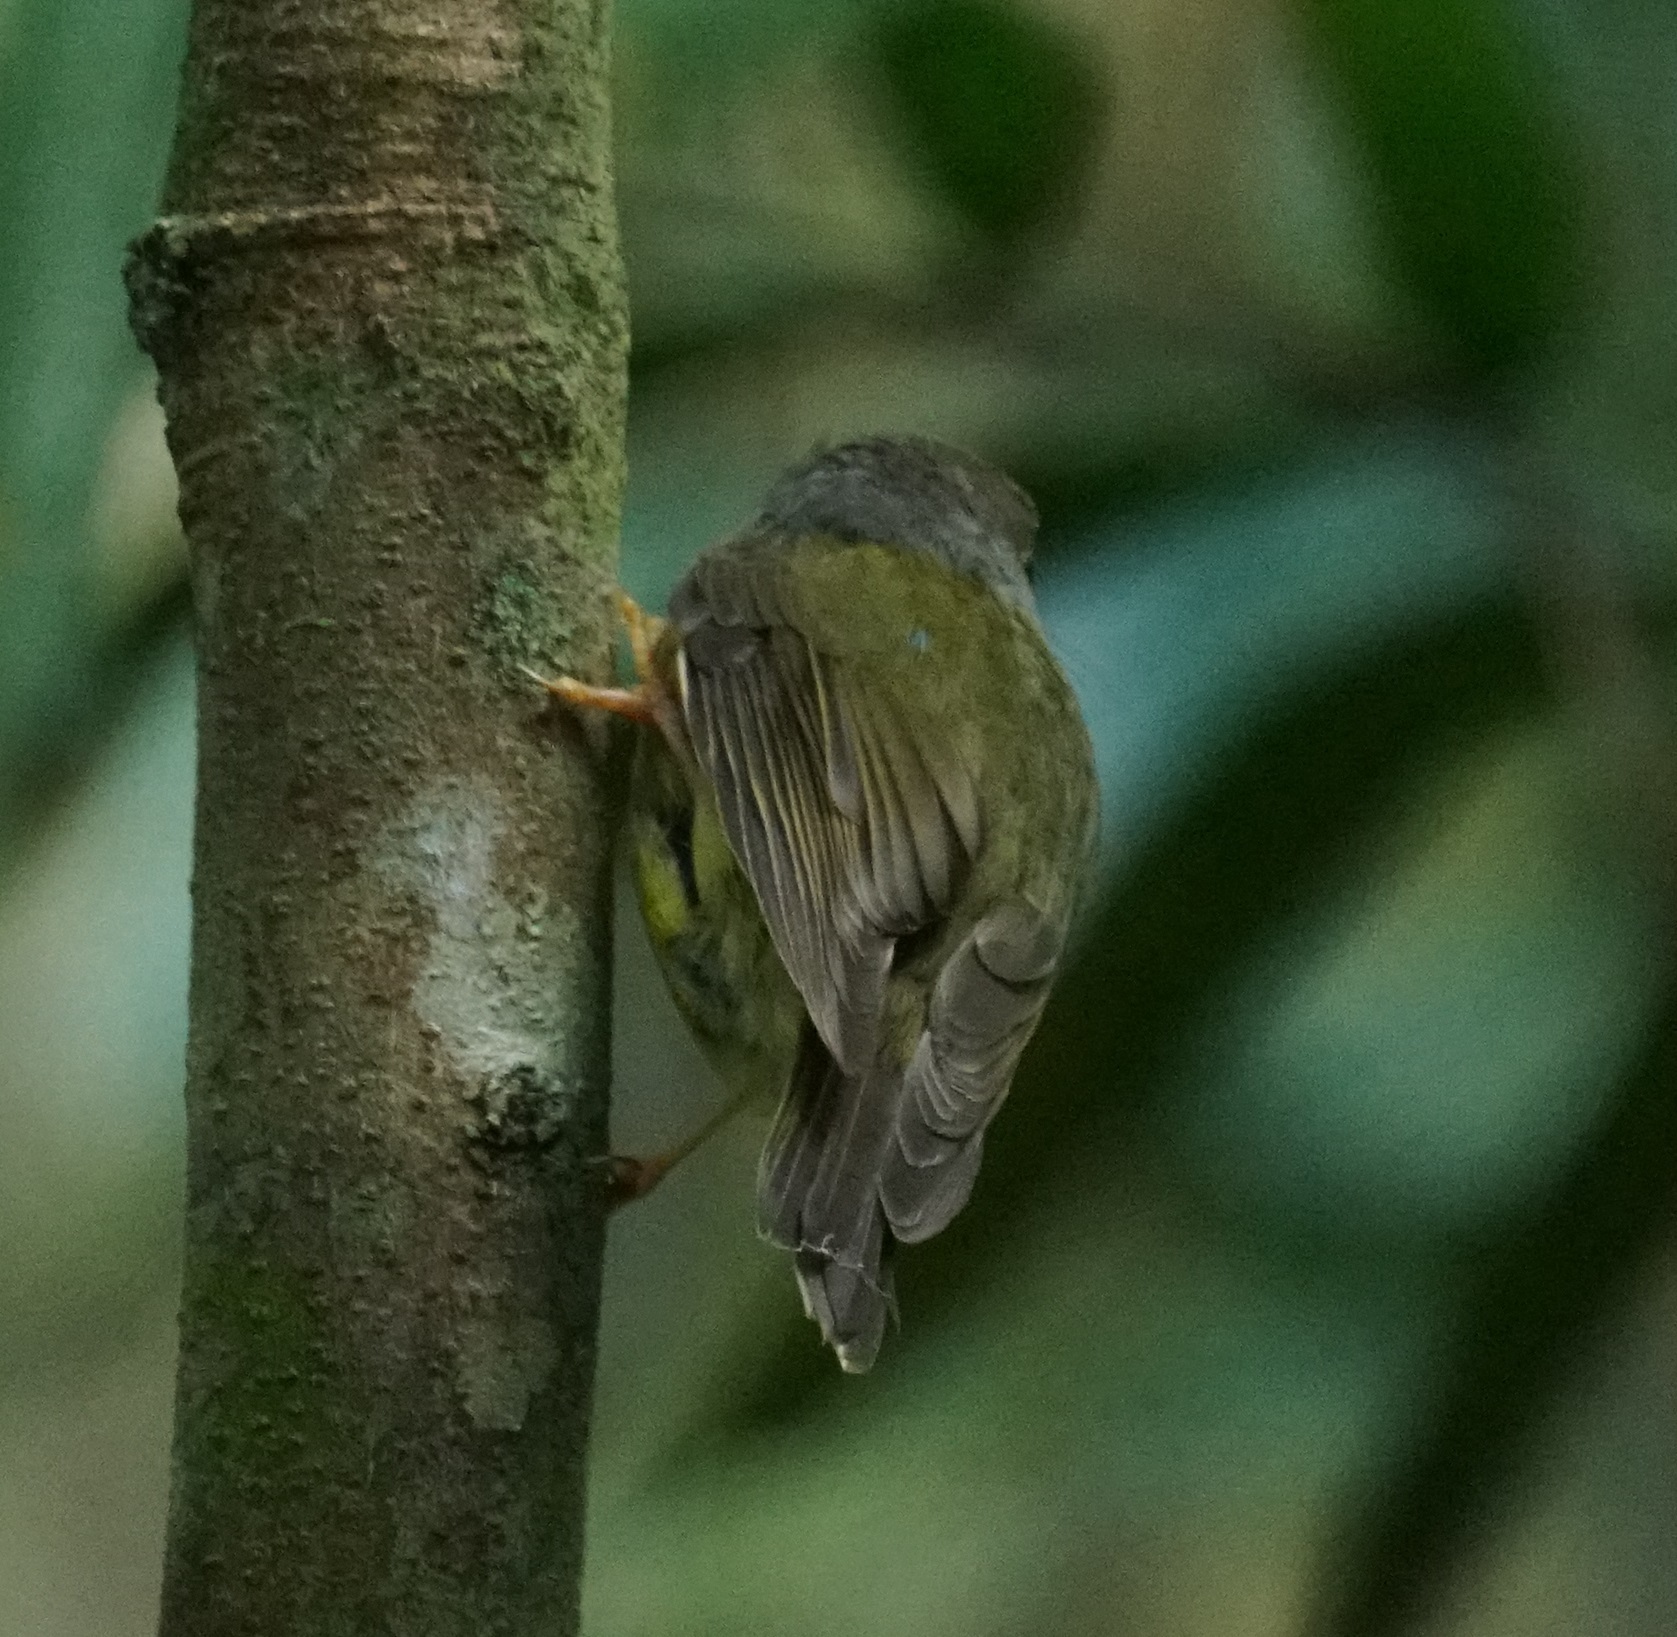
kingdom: Animalia
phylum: Chordata
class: Aves
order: Passeriformes
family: Petroicidae
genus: Eopsaltria
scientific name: Eopsaltria
